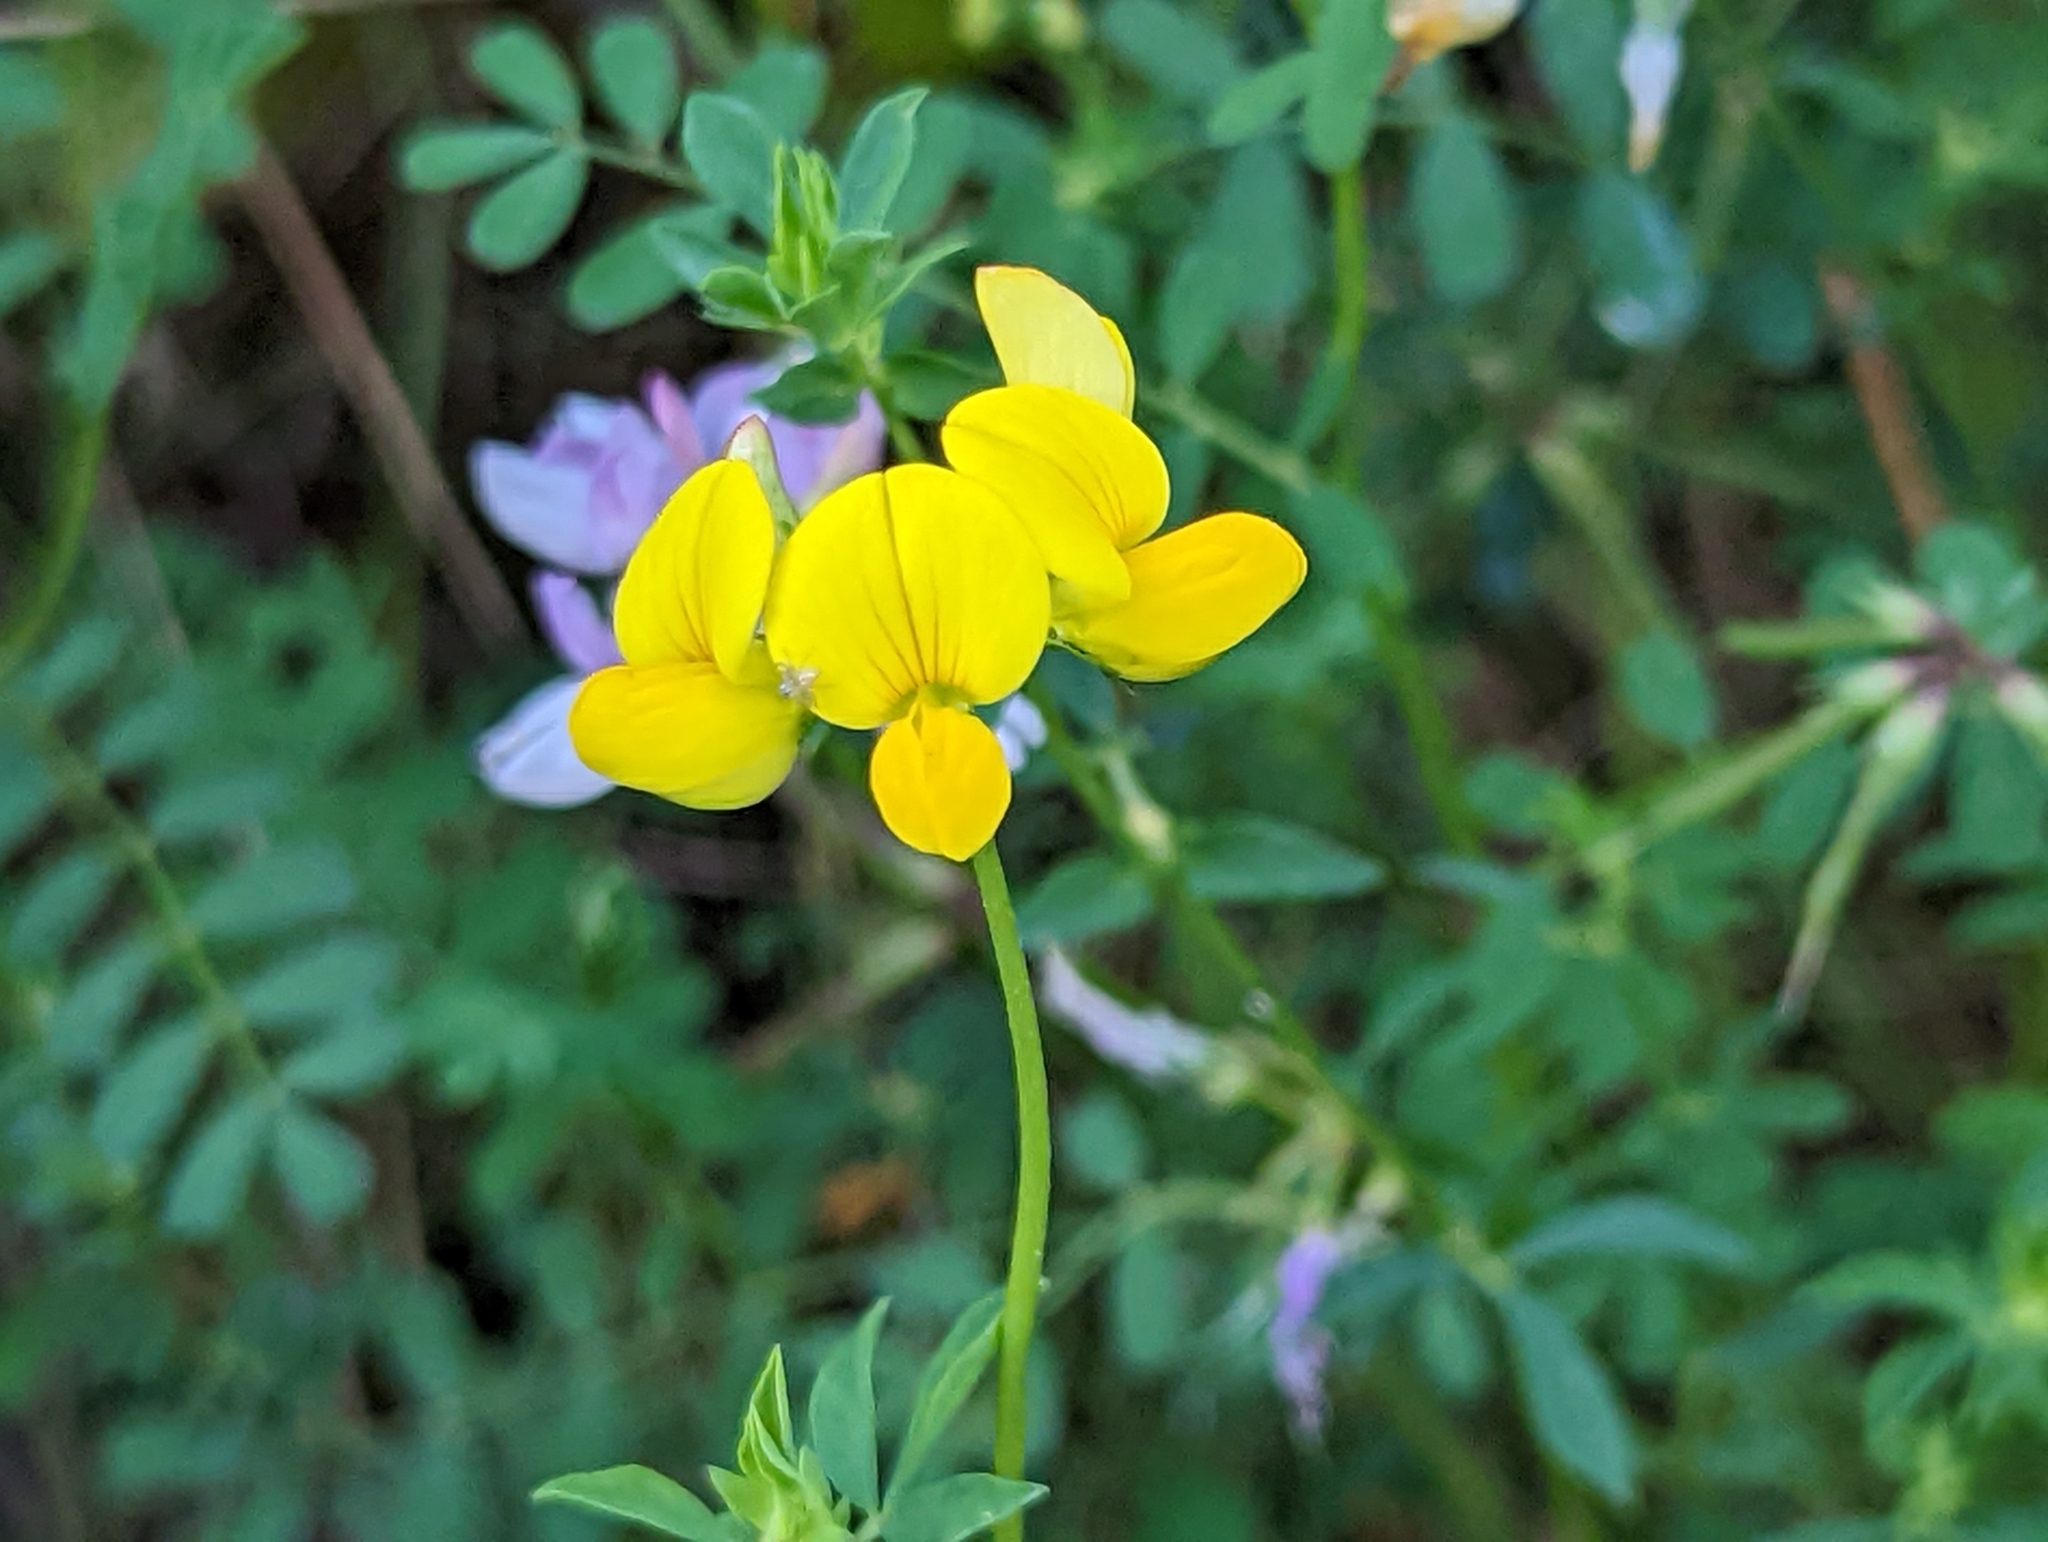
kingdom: Plantae
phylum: Tracheophyta
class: Magnoliopsida
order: Fabales
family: Fabaceae
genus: Lotus
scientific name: Lotus corniculatus
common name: Common bird's-foot-trefoil
